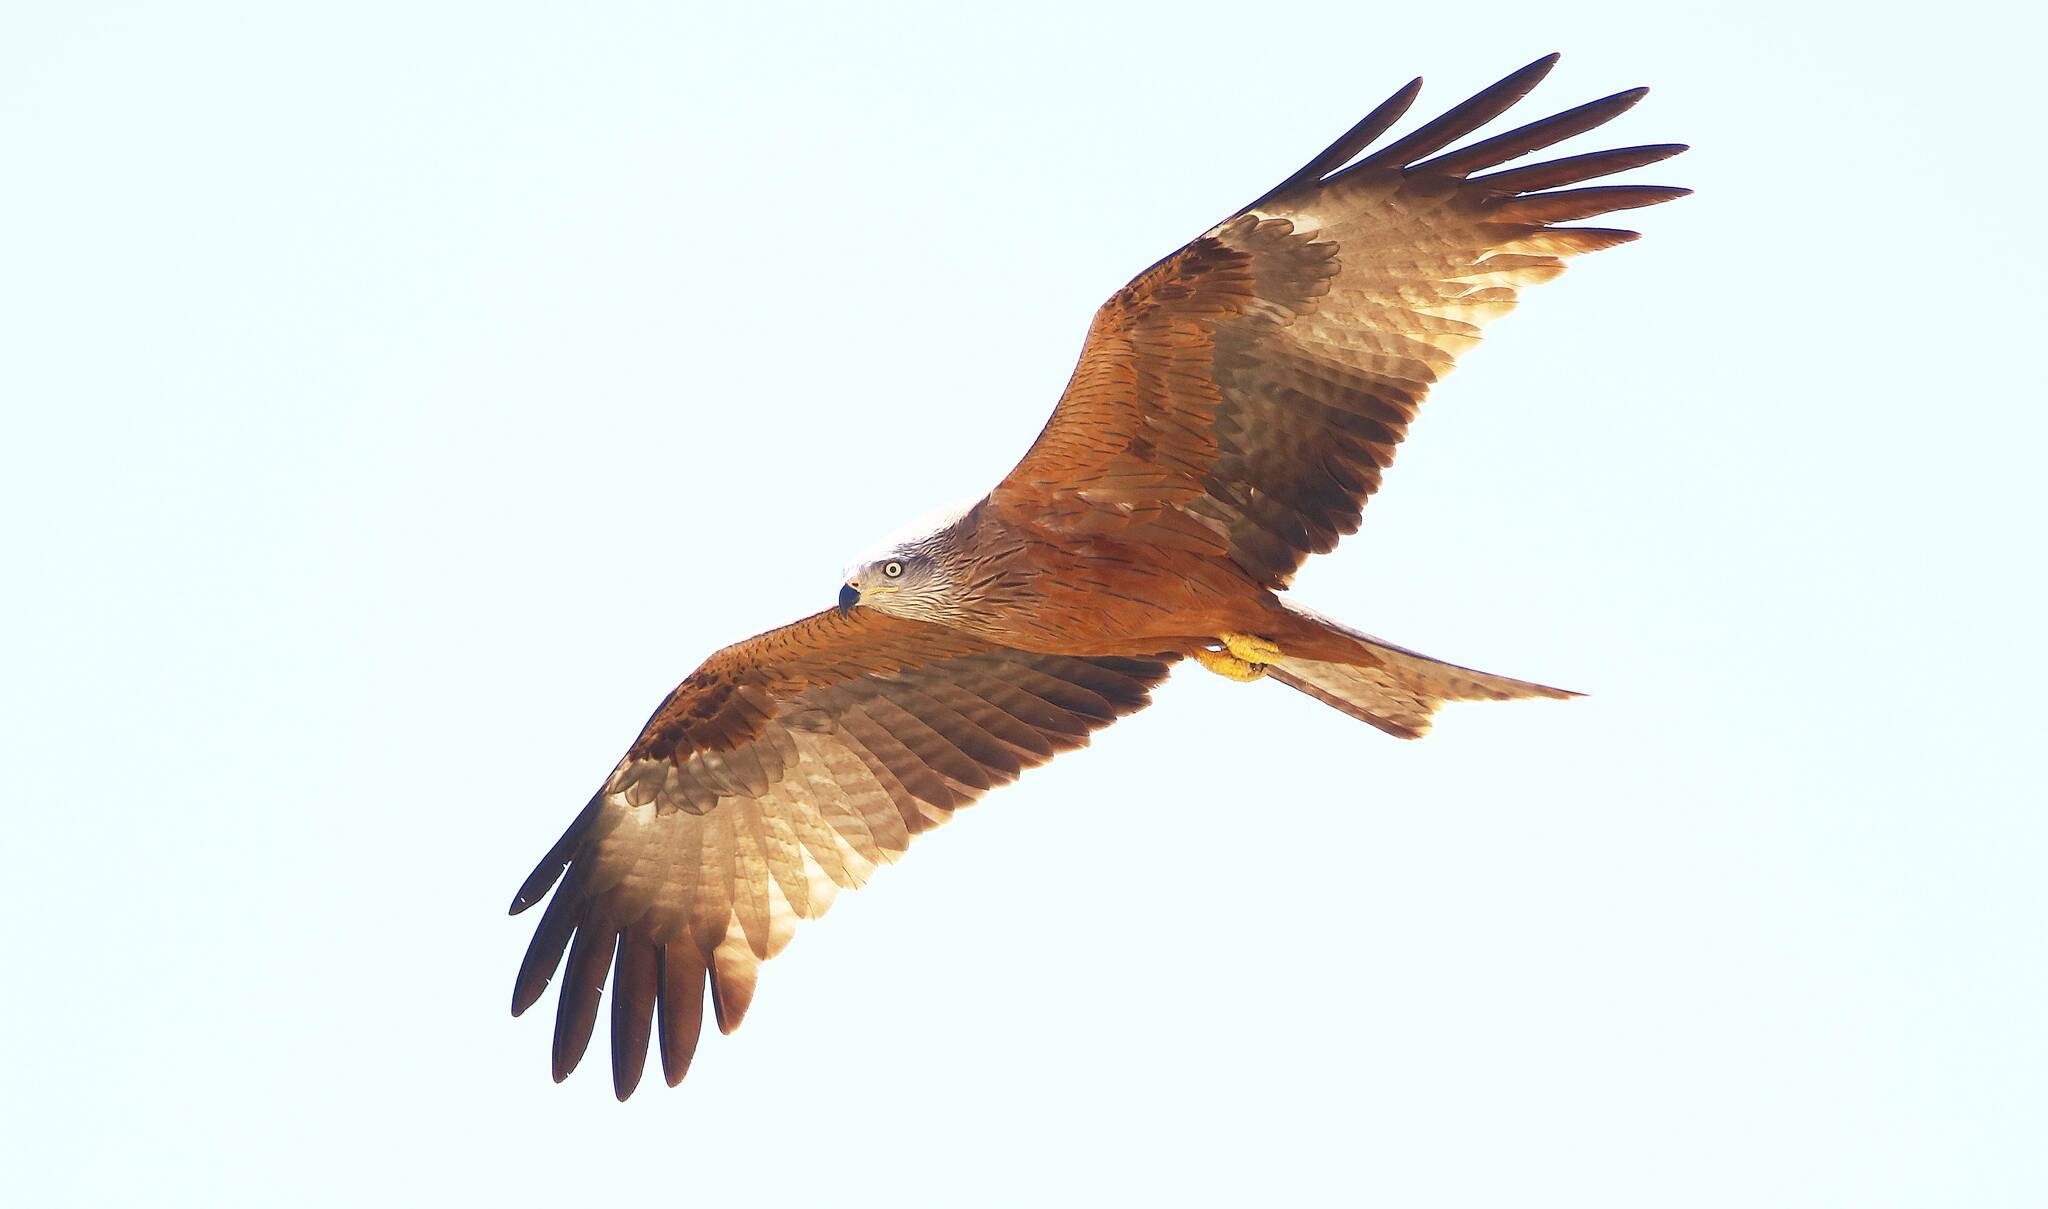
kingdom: Animalia
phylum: Chordata
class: Aves
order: Accipitriformes
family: Accipitridae
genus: Milvus
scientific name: Milvus migrans
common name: Black kite
